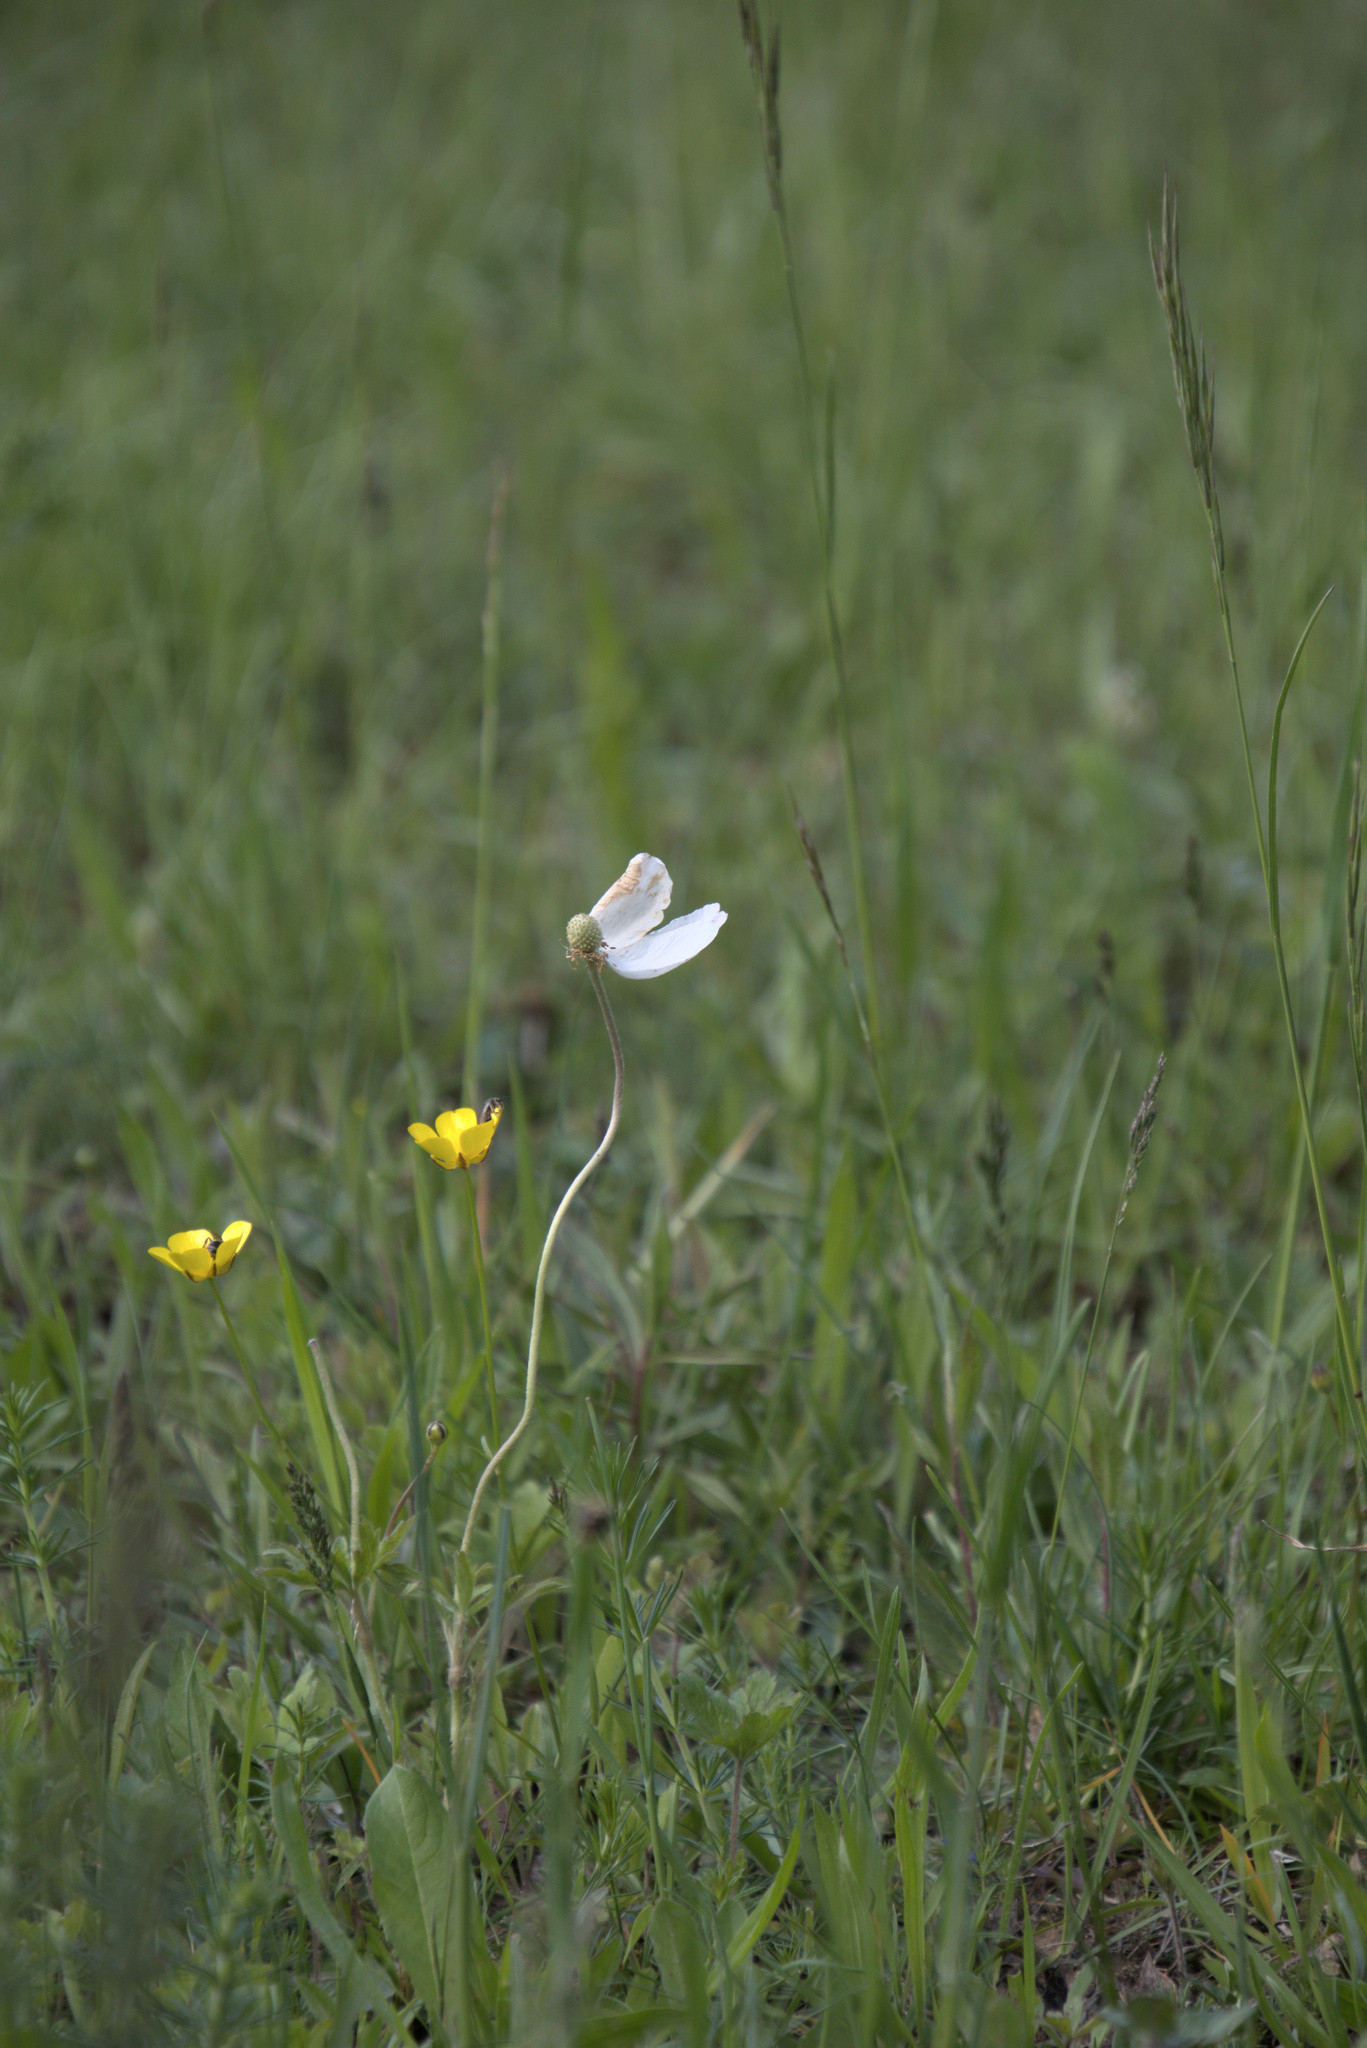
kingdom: Plantae
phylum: Tracheophyta
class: Magnoliopsida
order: Ranunculales
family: Ranunculaceae
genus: Anemone
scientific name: Anemone sylvestris
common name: Snowdrop anemone
